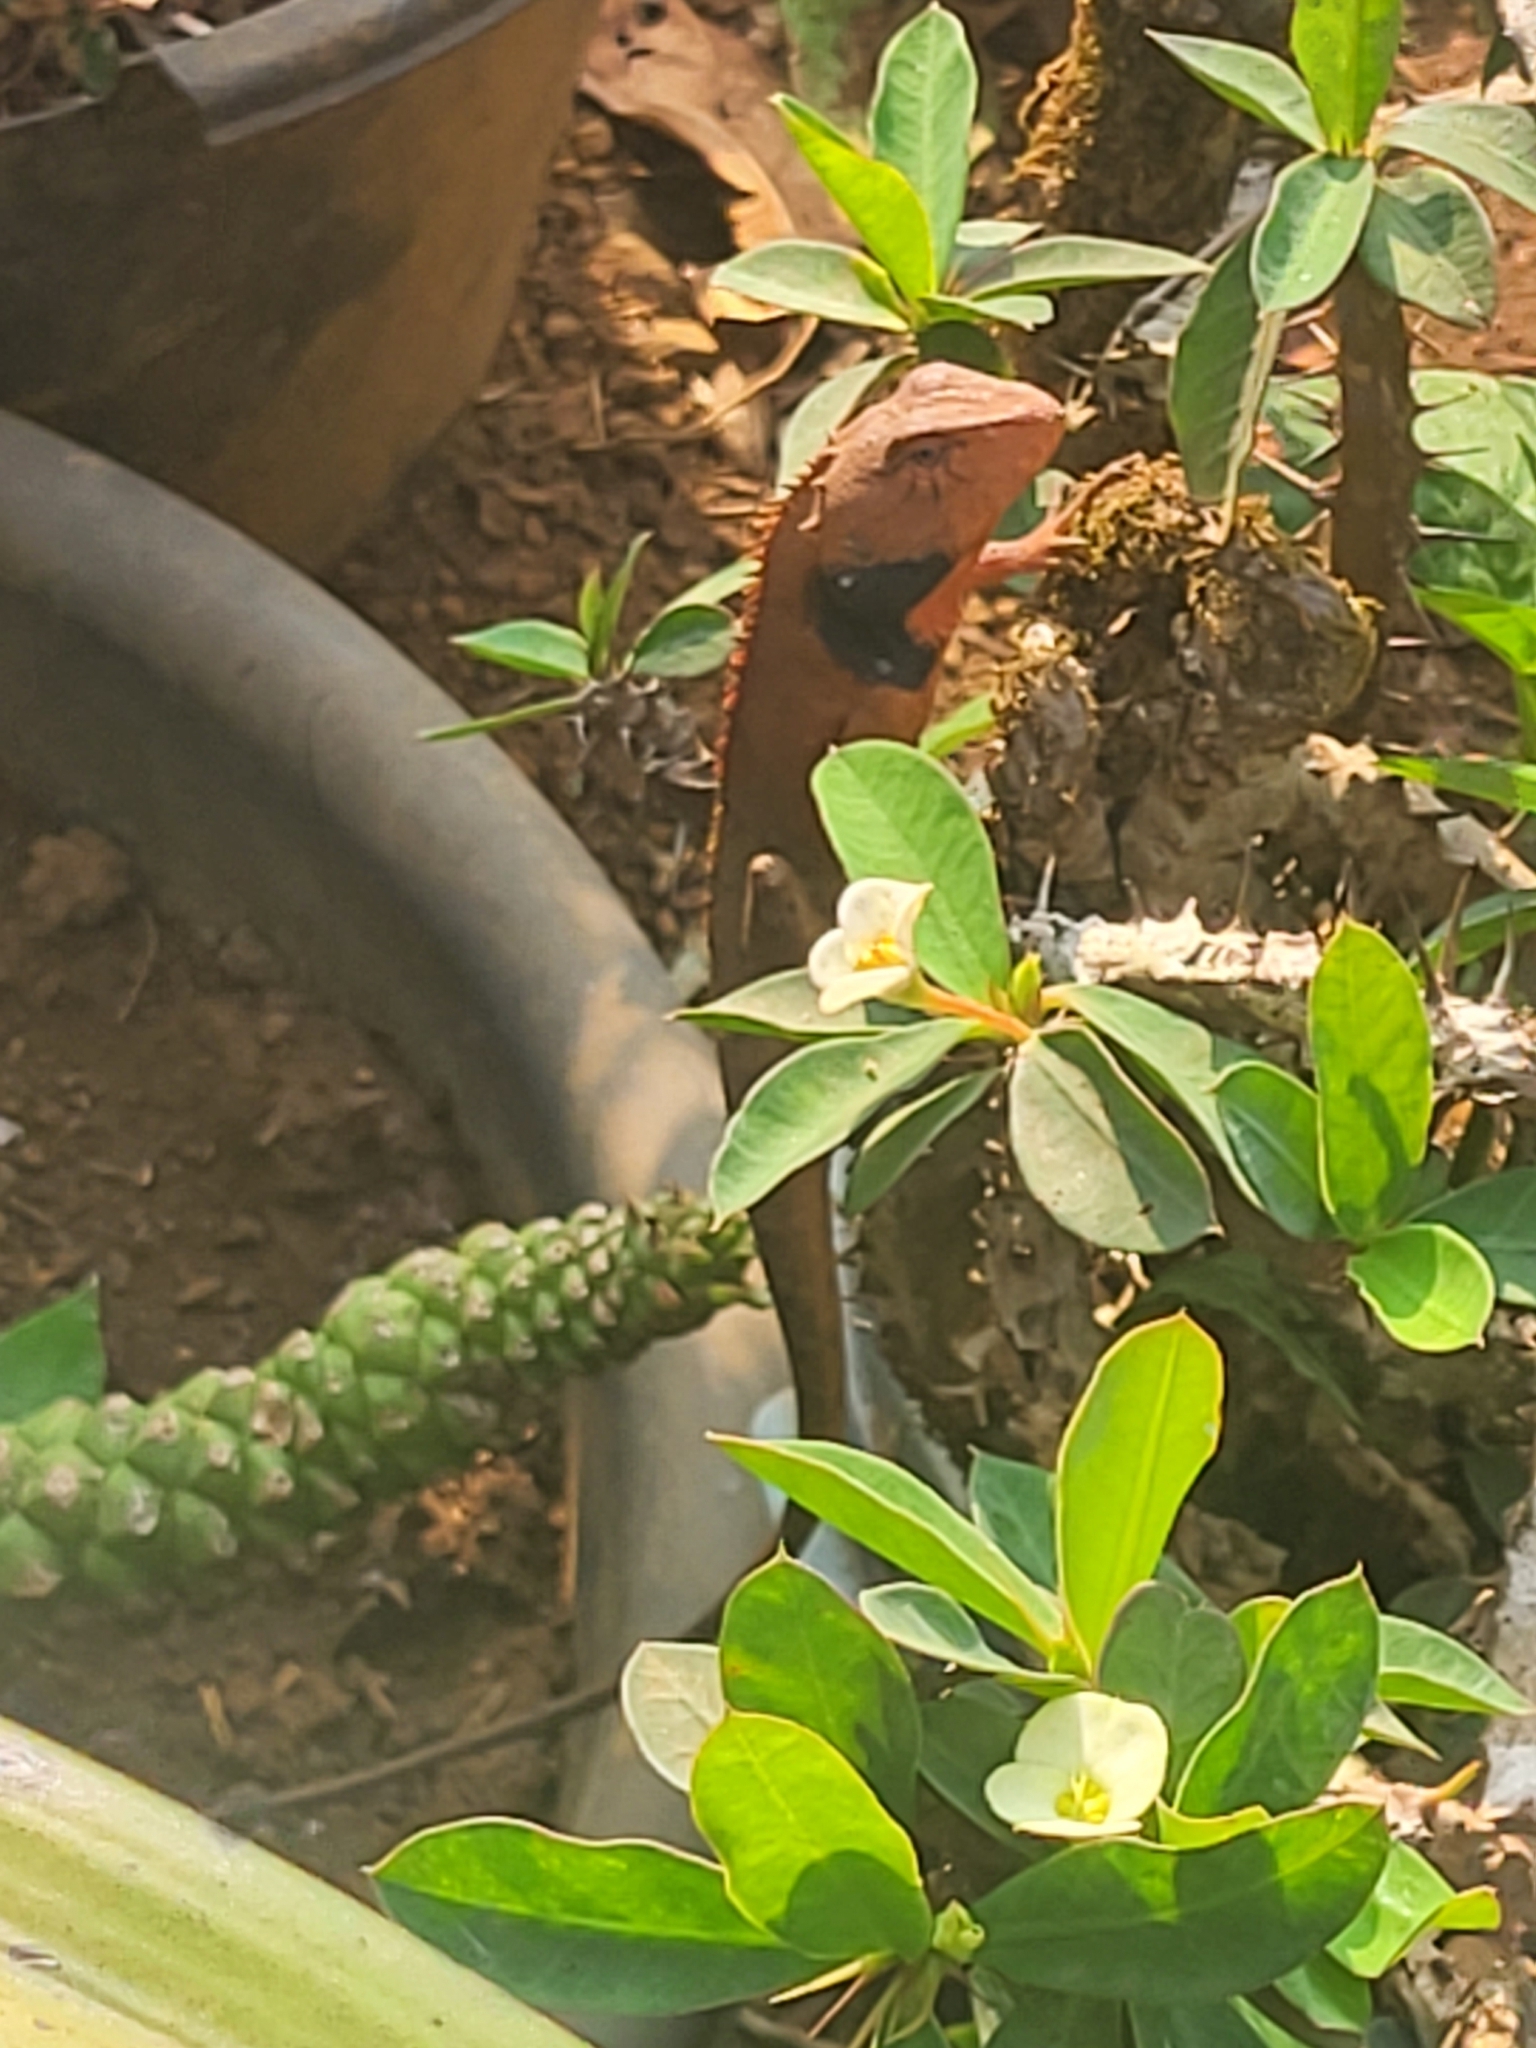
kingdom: Animalia
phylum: Chordata
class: Squamata
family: Agamidae
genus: Calotes
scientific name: Calotes versicolor
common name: Oriental garden lizard
